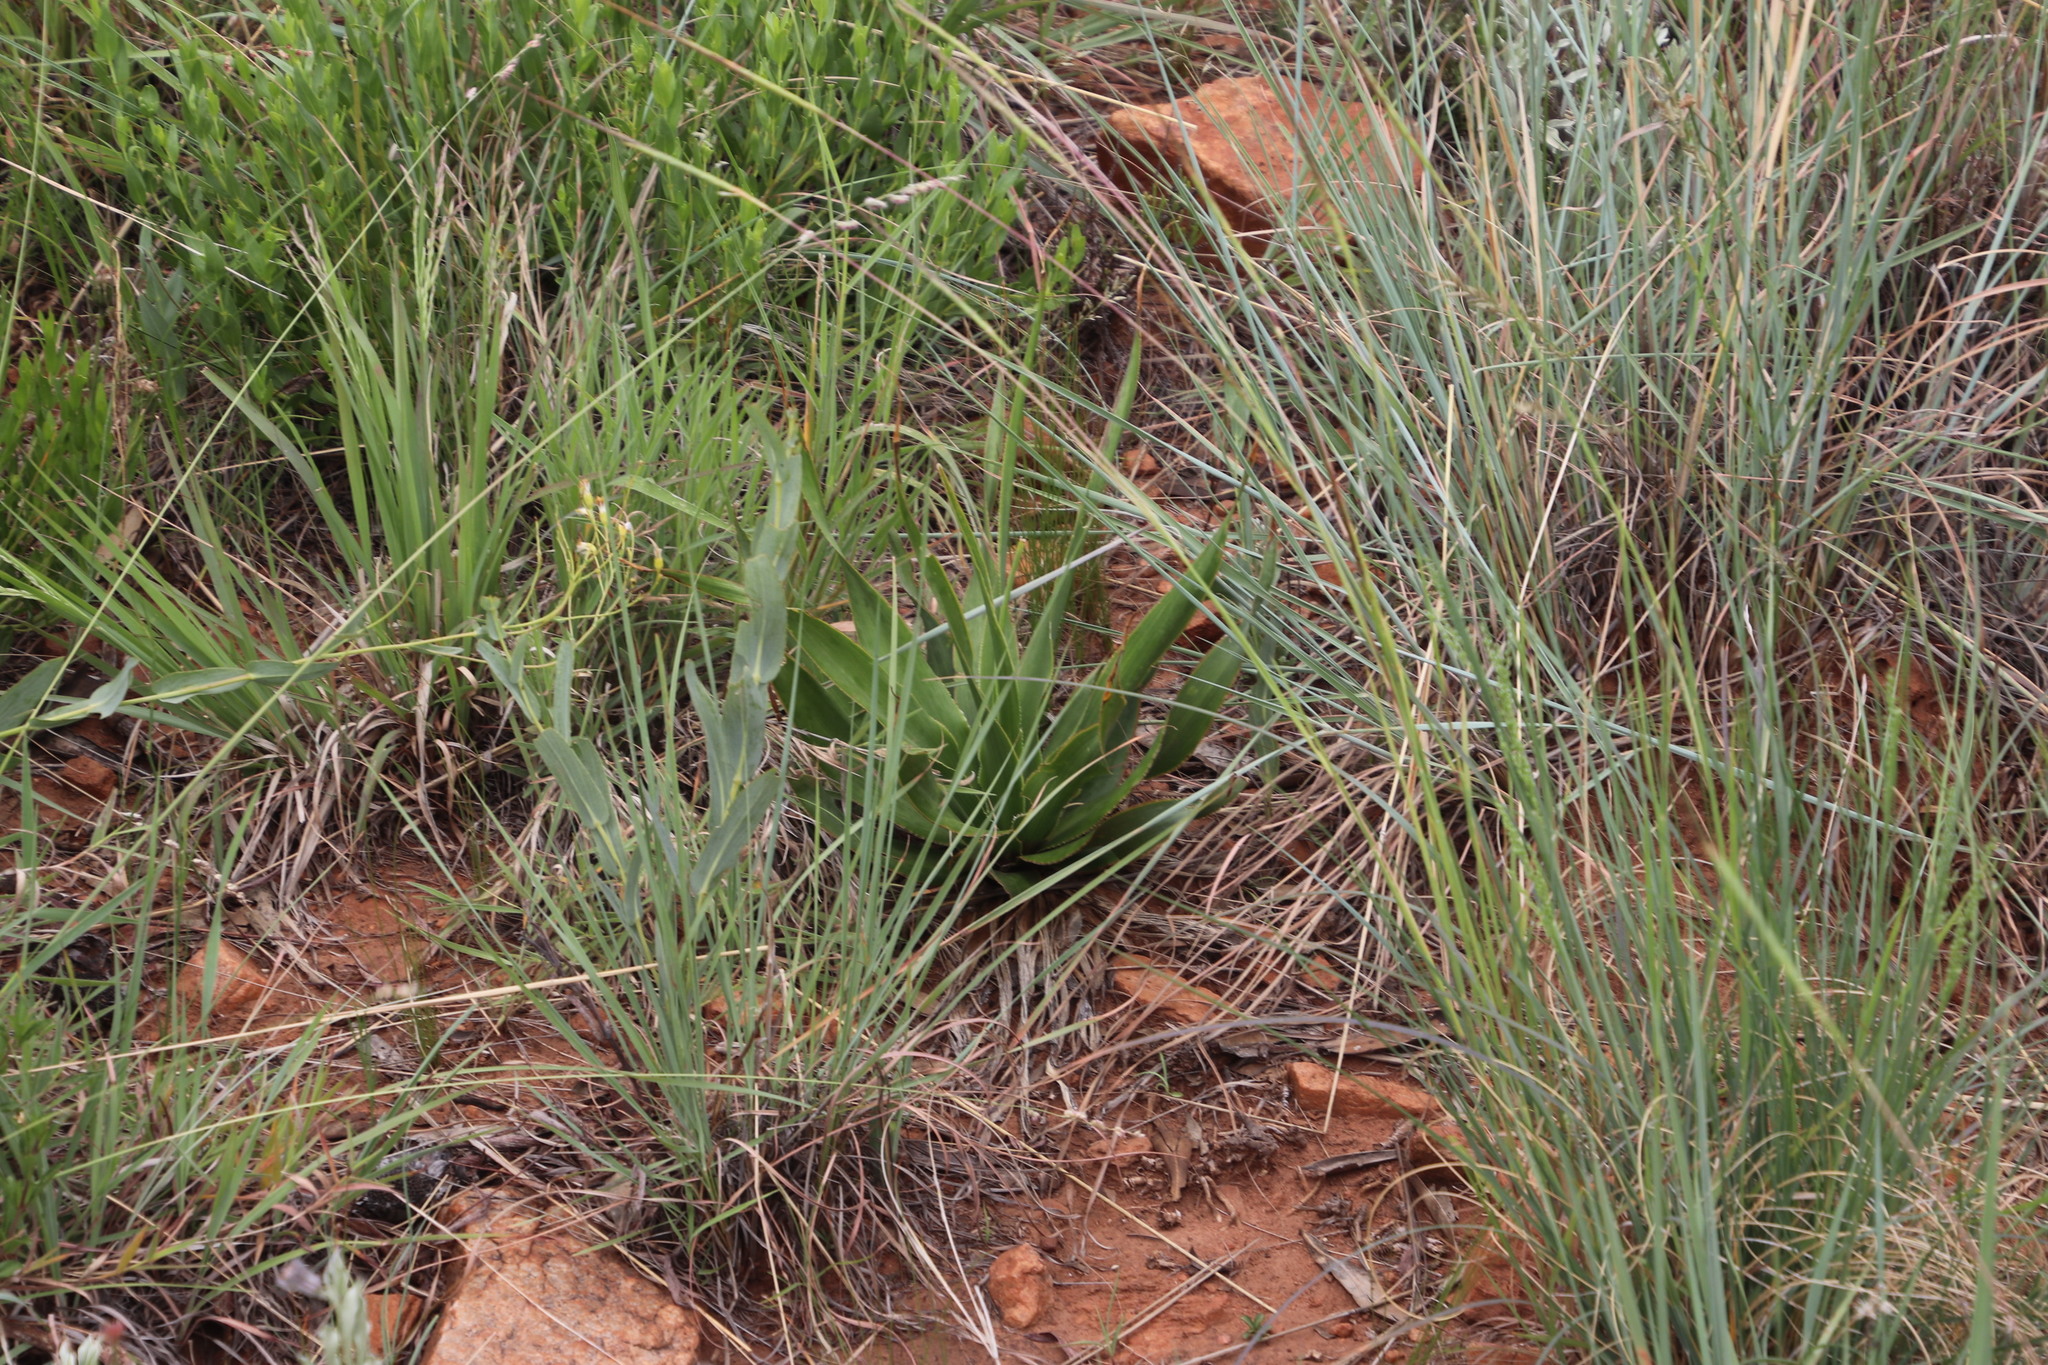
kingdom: Plantae
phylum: Tracheophyta
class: Liliopsida
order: Asparagales
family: Asparagaceae
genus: Ledebouria
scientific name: Ledebouria marginata
